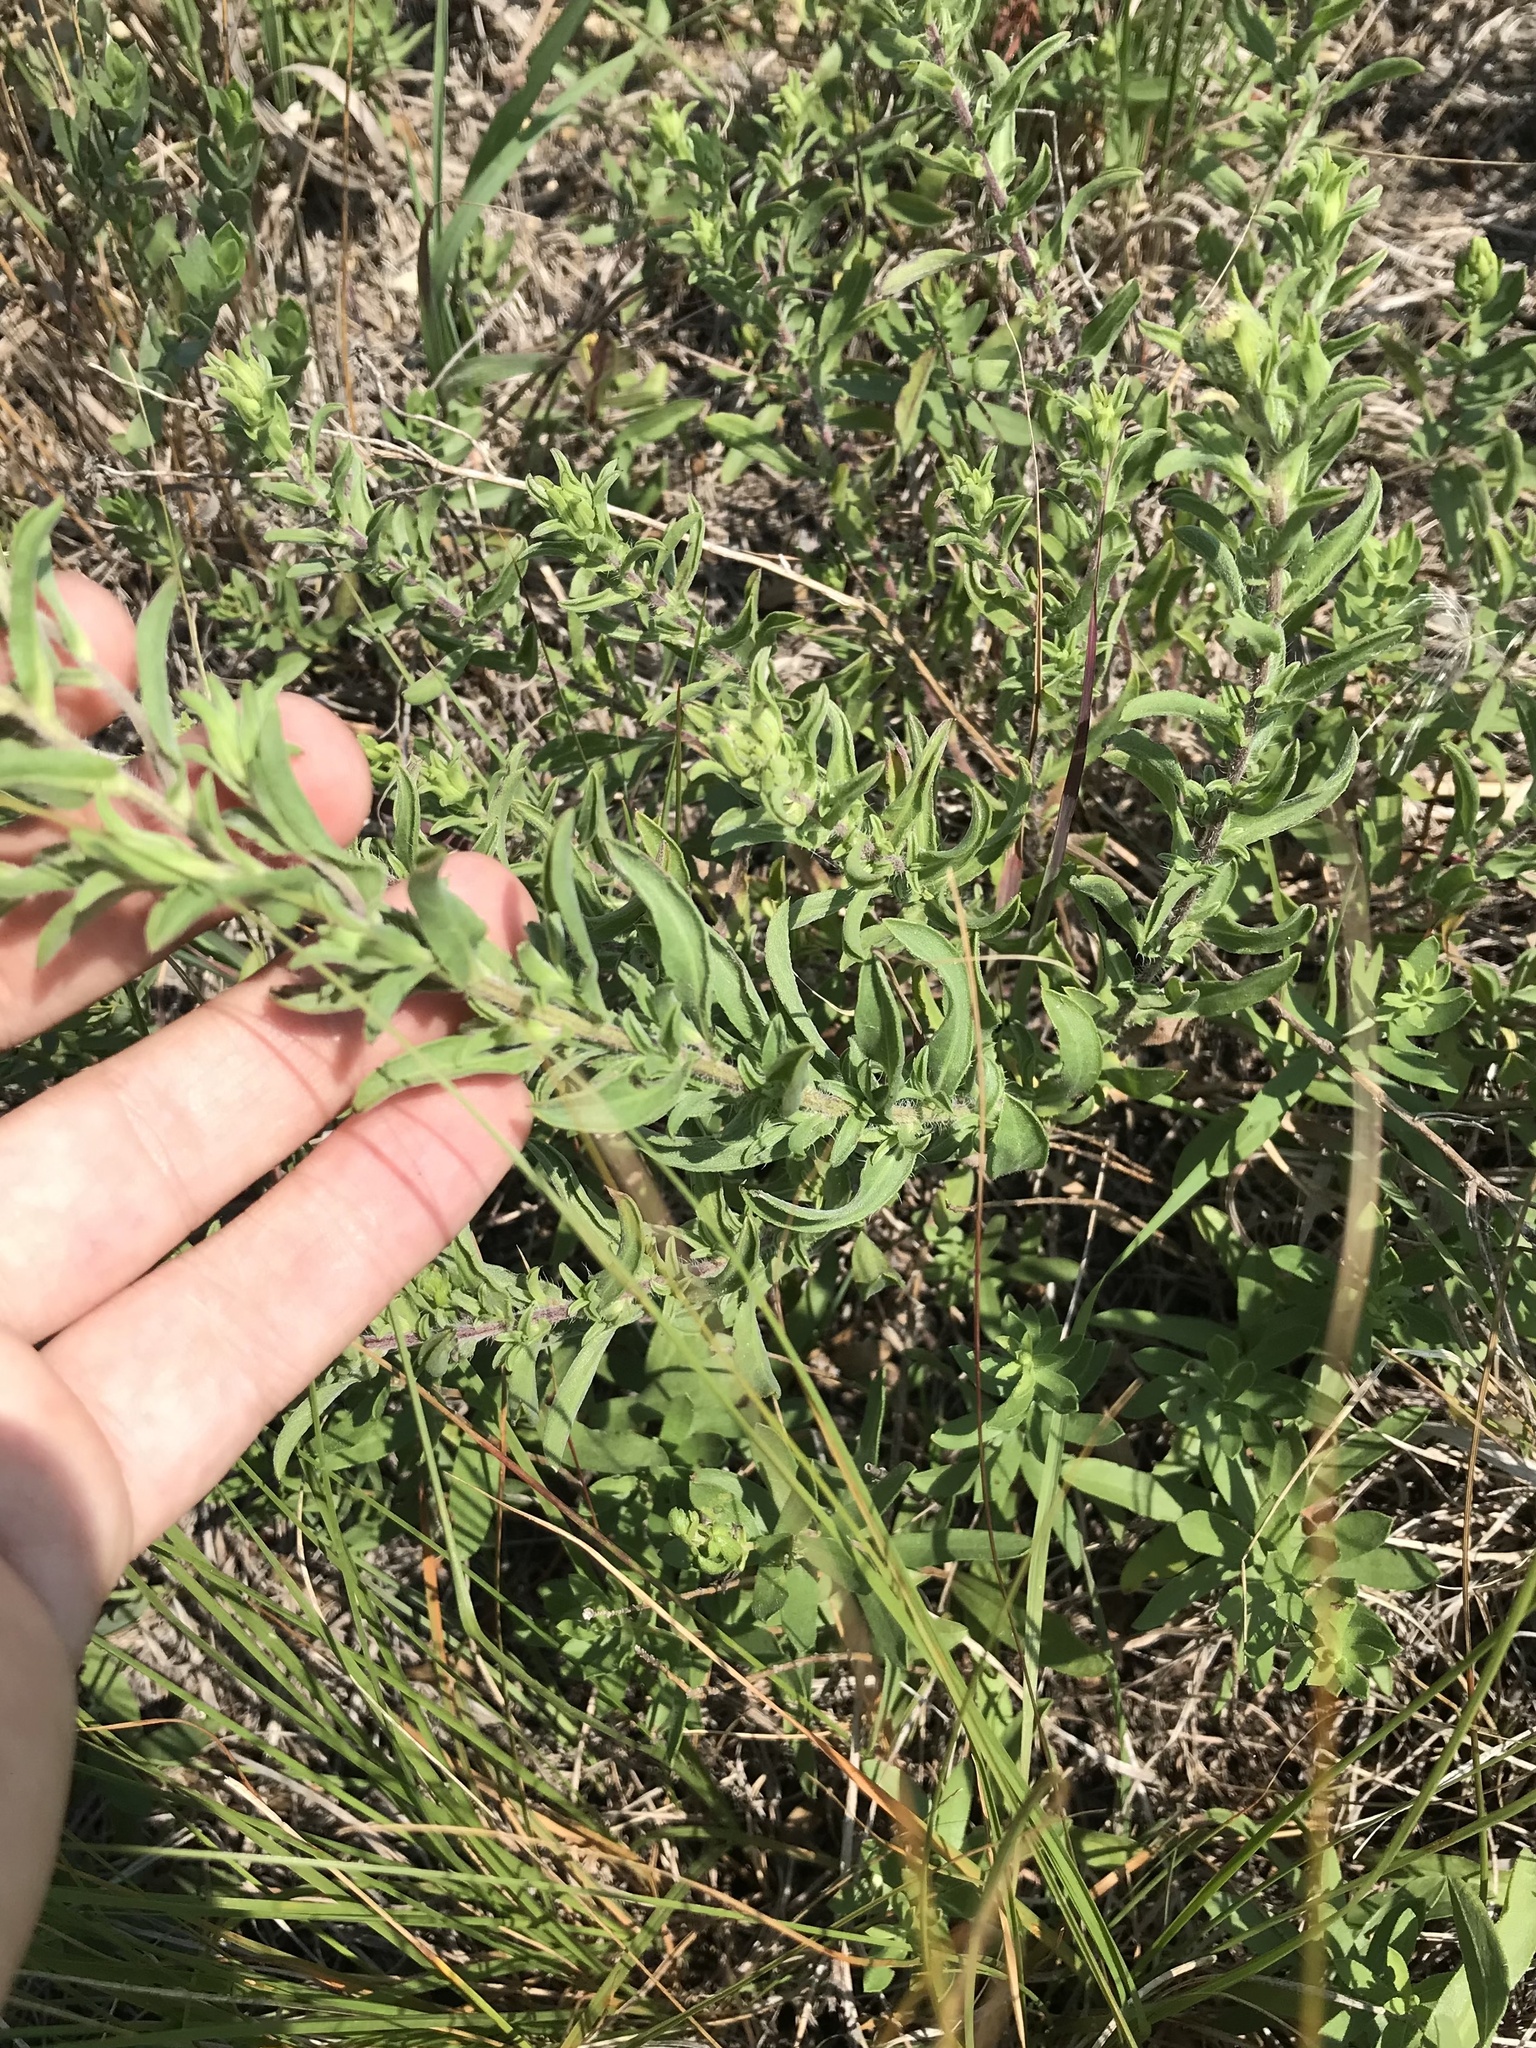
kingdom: Plantae
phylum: Tracheophyta
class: Magnoliopsida
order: Asterales
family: Asteraceae
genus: Heterotheca
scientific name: Heterotheca villosa
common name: Hairy false goldenaster
